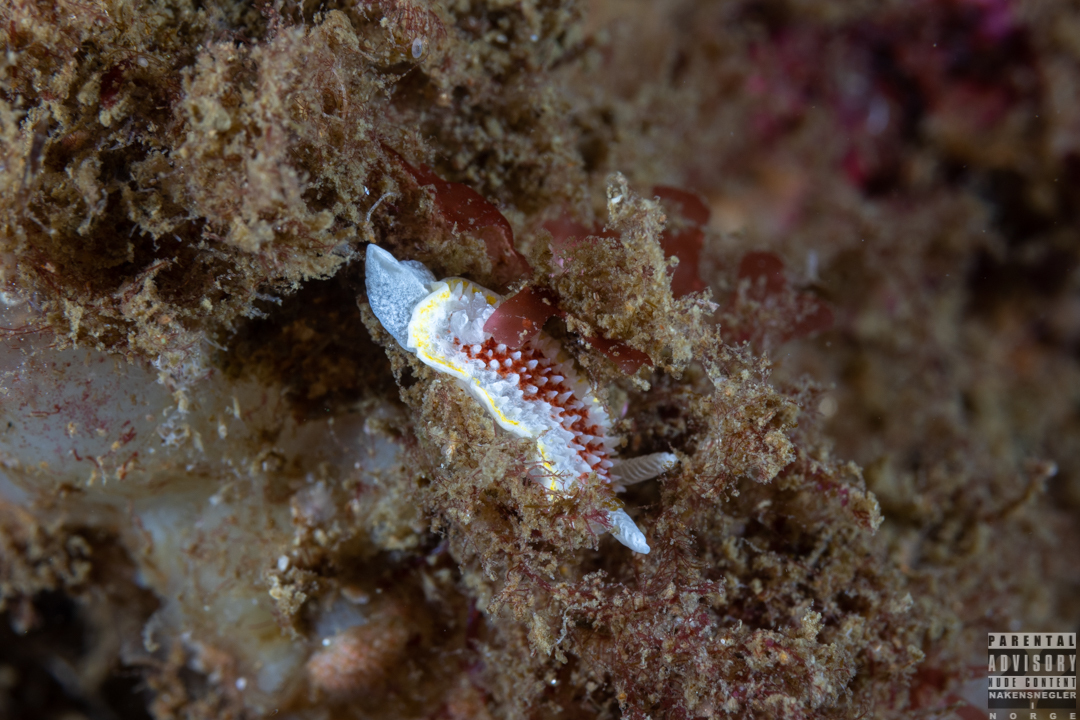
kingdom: Animalia
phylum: Mollusca
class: Gastropoda
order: Nudibranchia
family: Calycidorididae
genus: Diaphorodoris
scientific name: Diaphorodoris luteocincta
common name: Fried egg nudibranch
